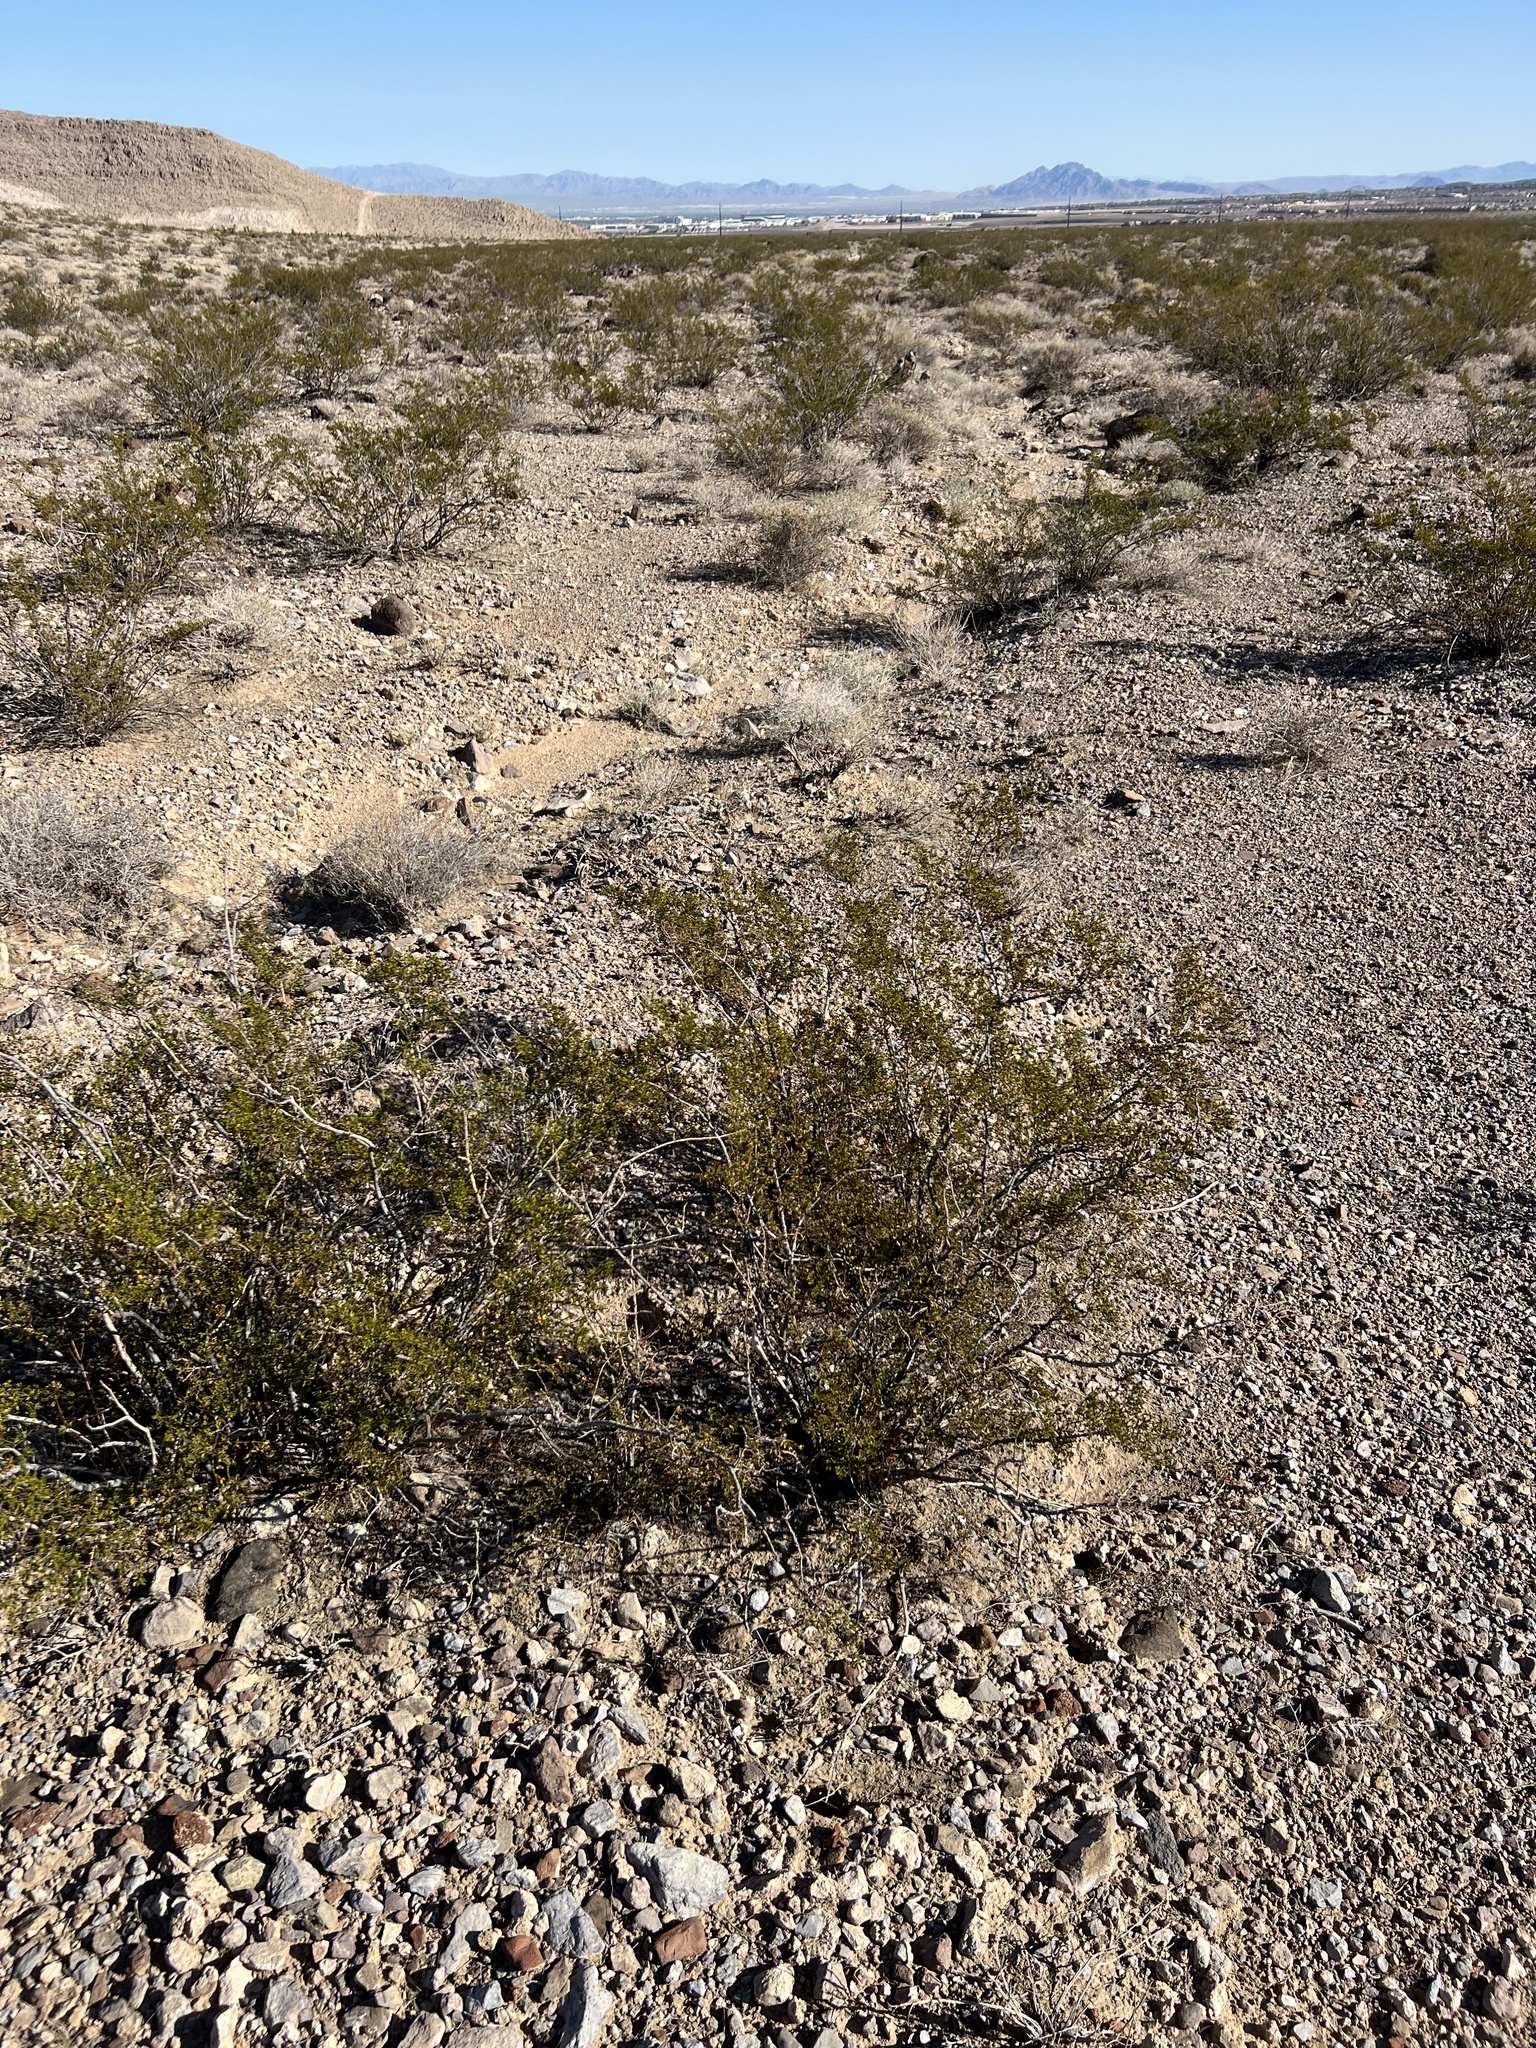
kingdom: Plantae
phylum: Tracheophyta
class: Magnoliopsida
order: Zygophyllales
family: Zygophyllaceae
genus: Larrea
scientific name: Larrea tridentata
